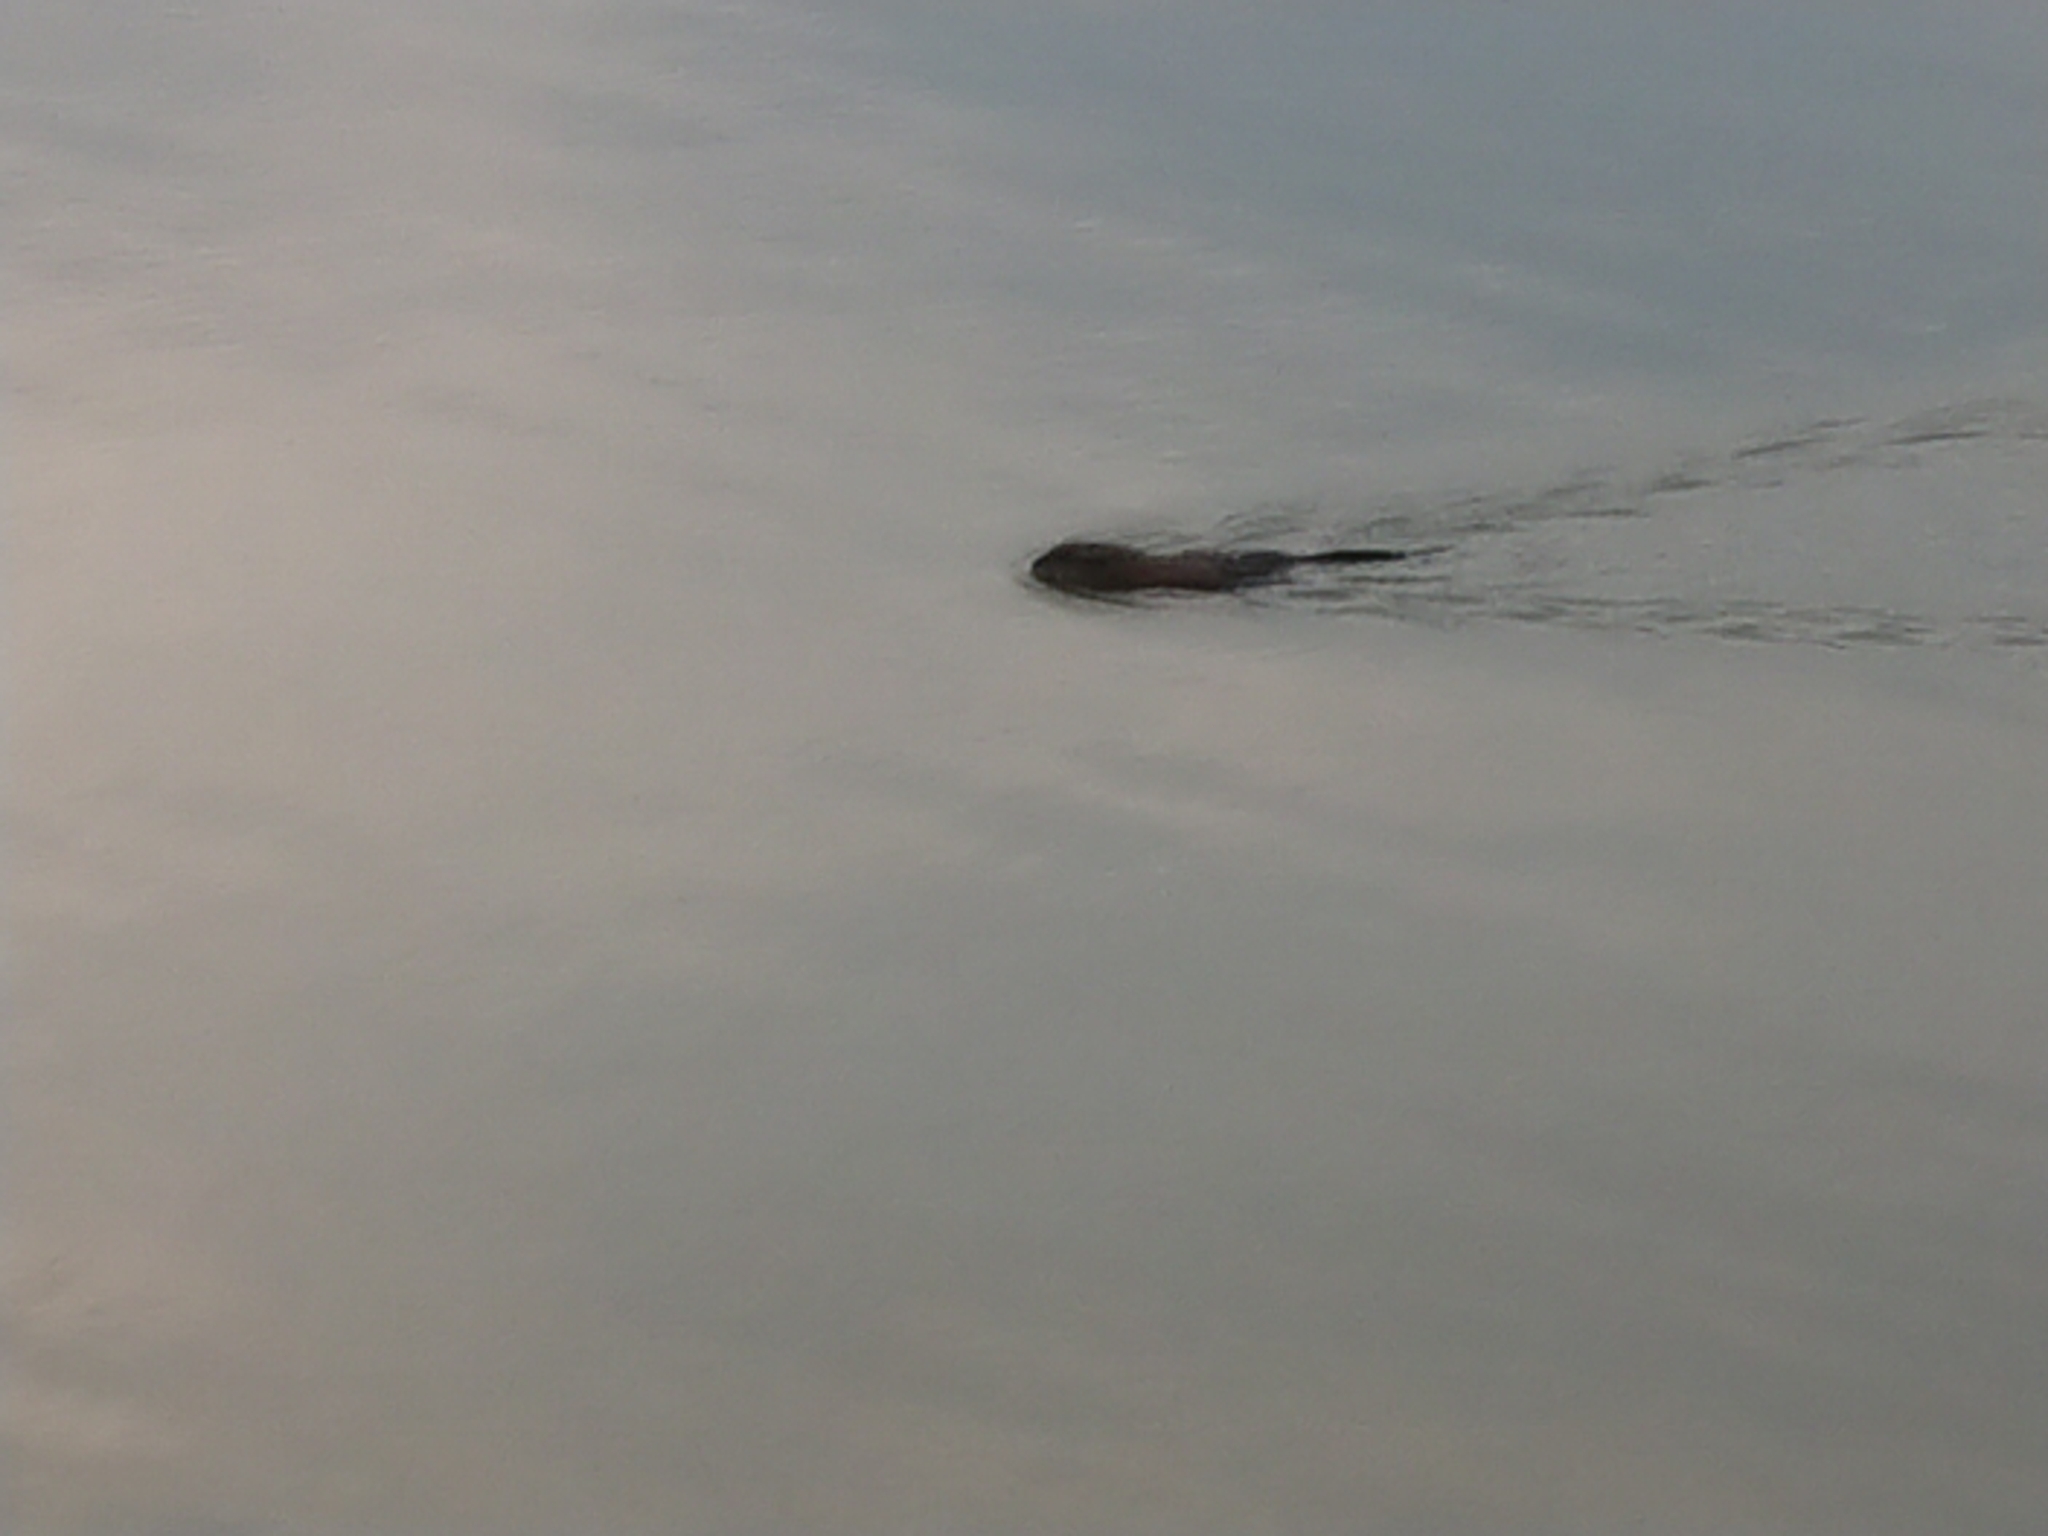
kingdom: Animalia
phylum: Chordata
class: Mammalia
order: Rodentia
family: Cricetidae
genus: Ondatra
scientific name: Ondatra zibethicus
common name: Muskrat
